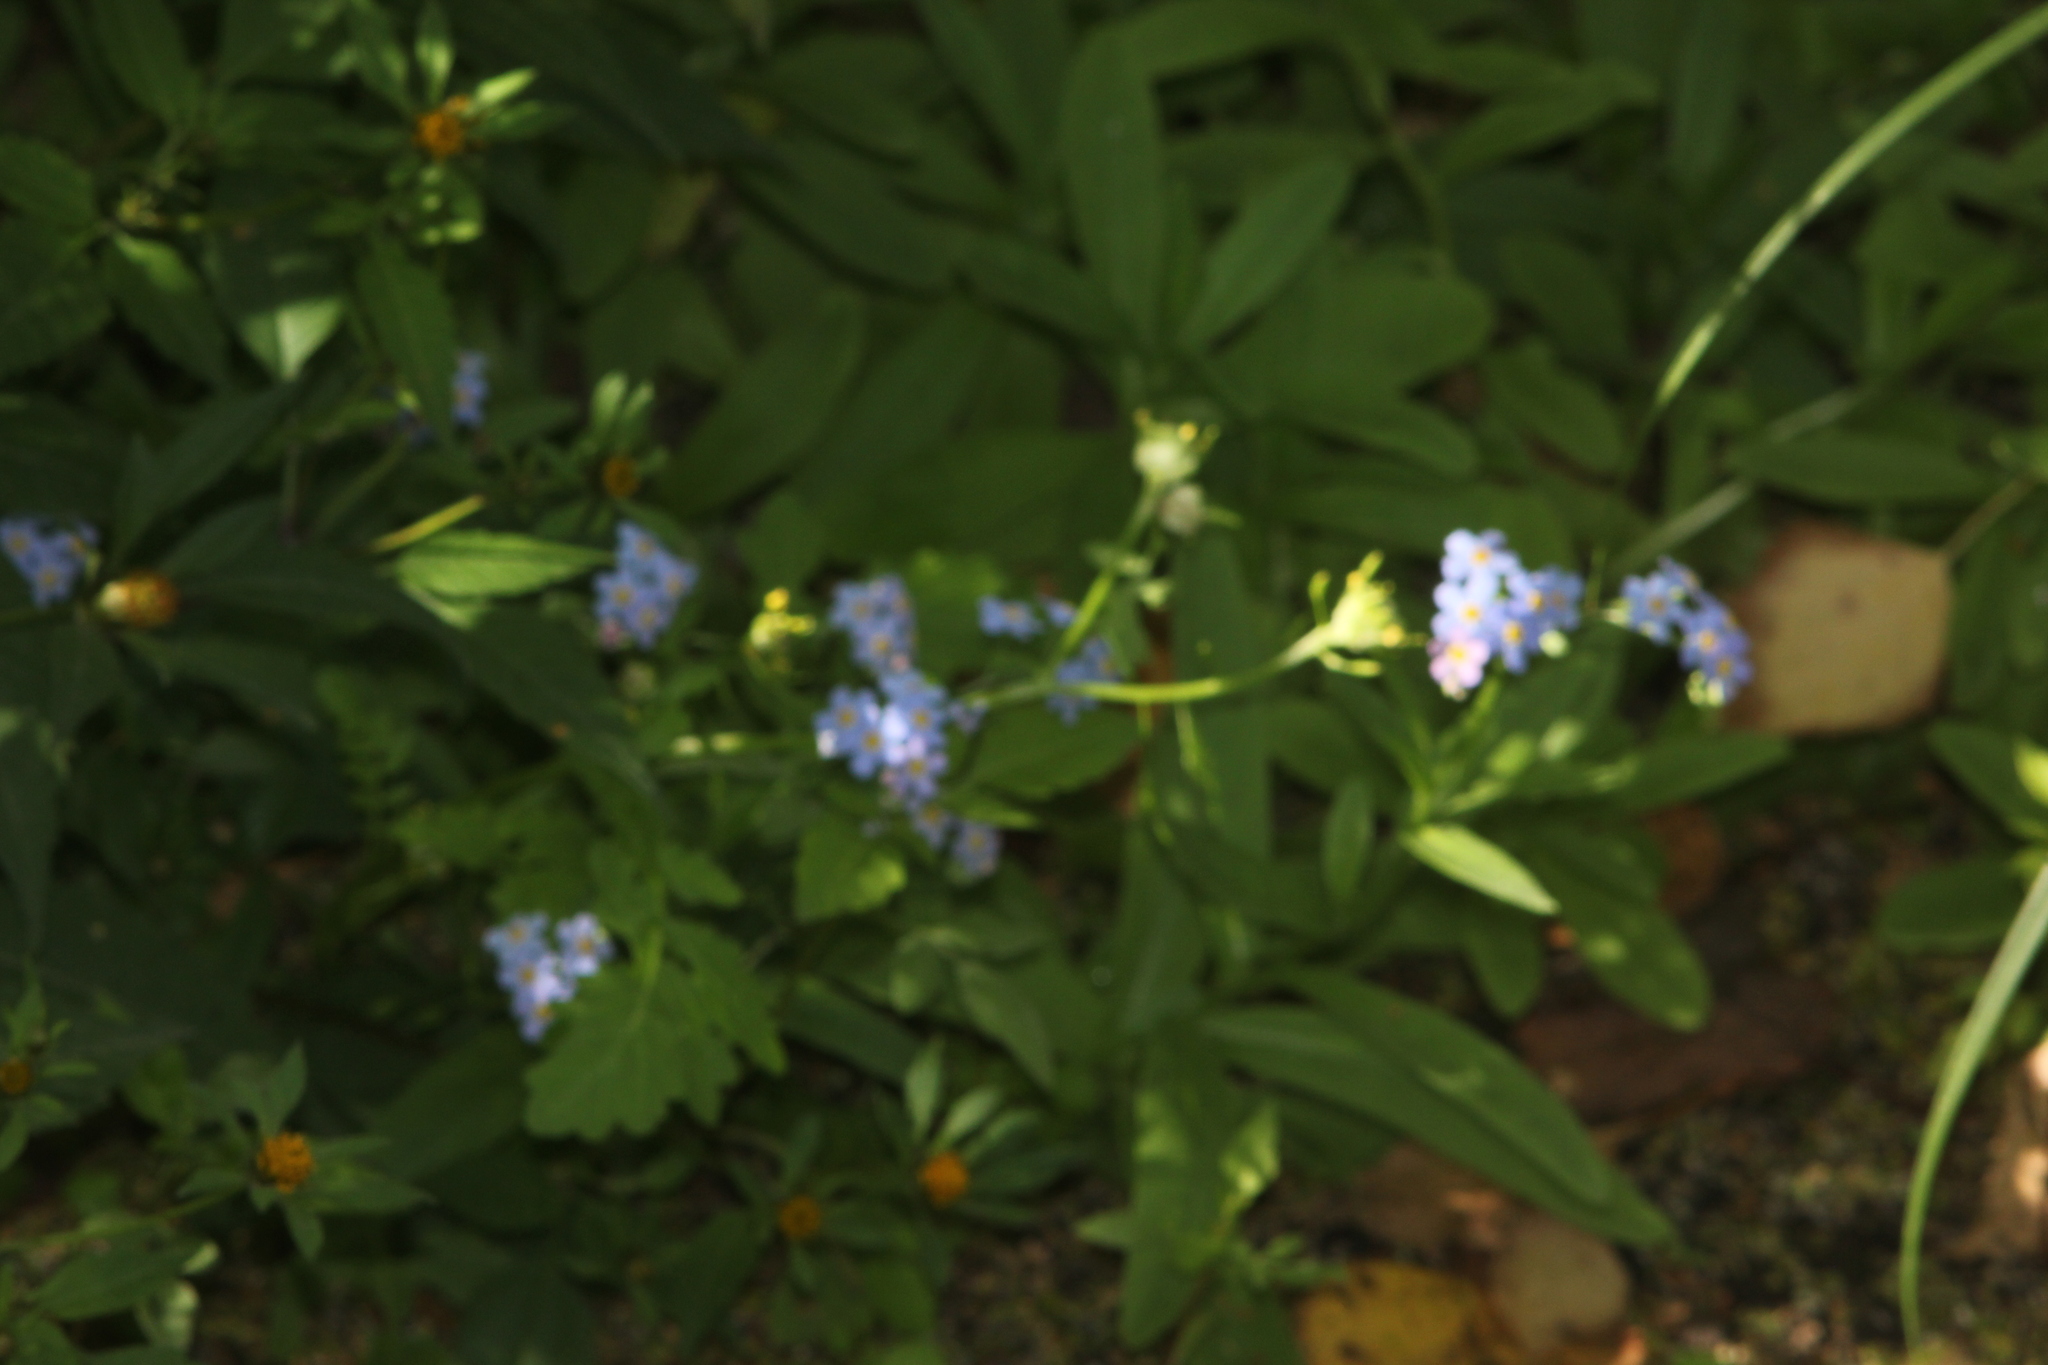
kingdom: Plantae
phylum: Tracheophyta
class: Magnoliopsida
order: Boraginales
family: Boraginaceae
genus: Myosotis
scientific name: Myosotis scorpioides
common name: Water forget-me-not
